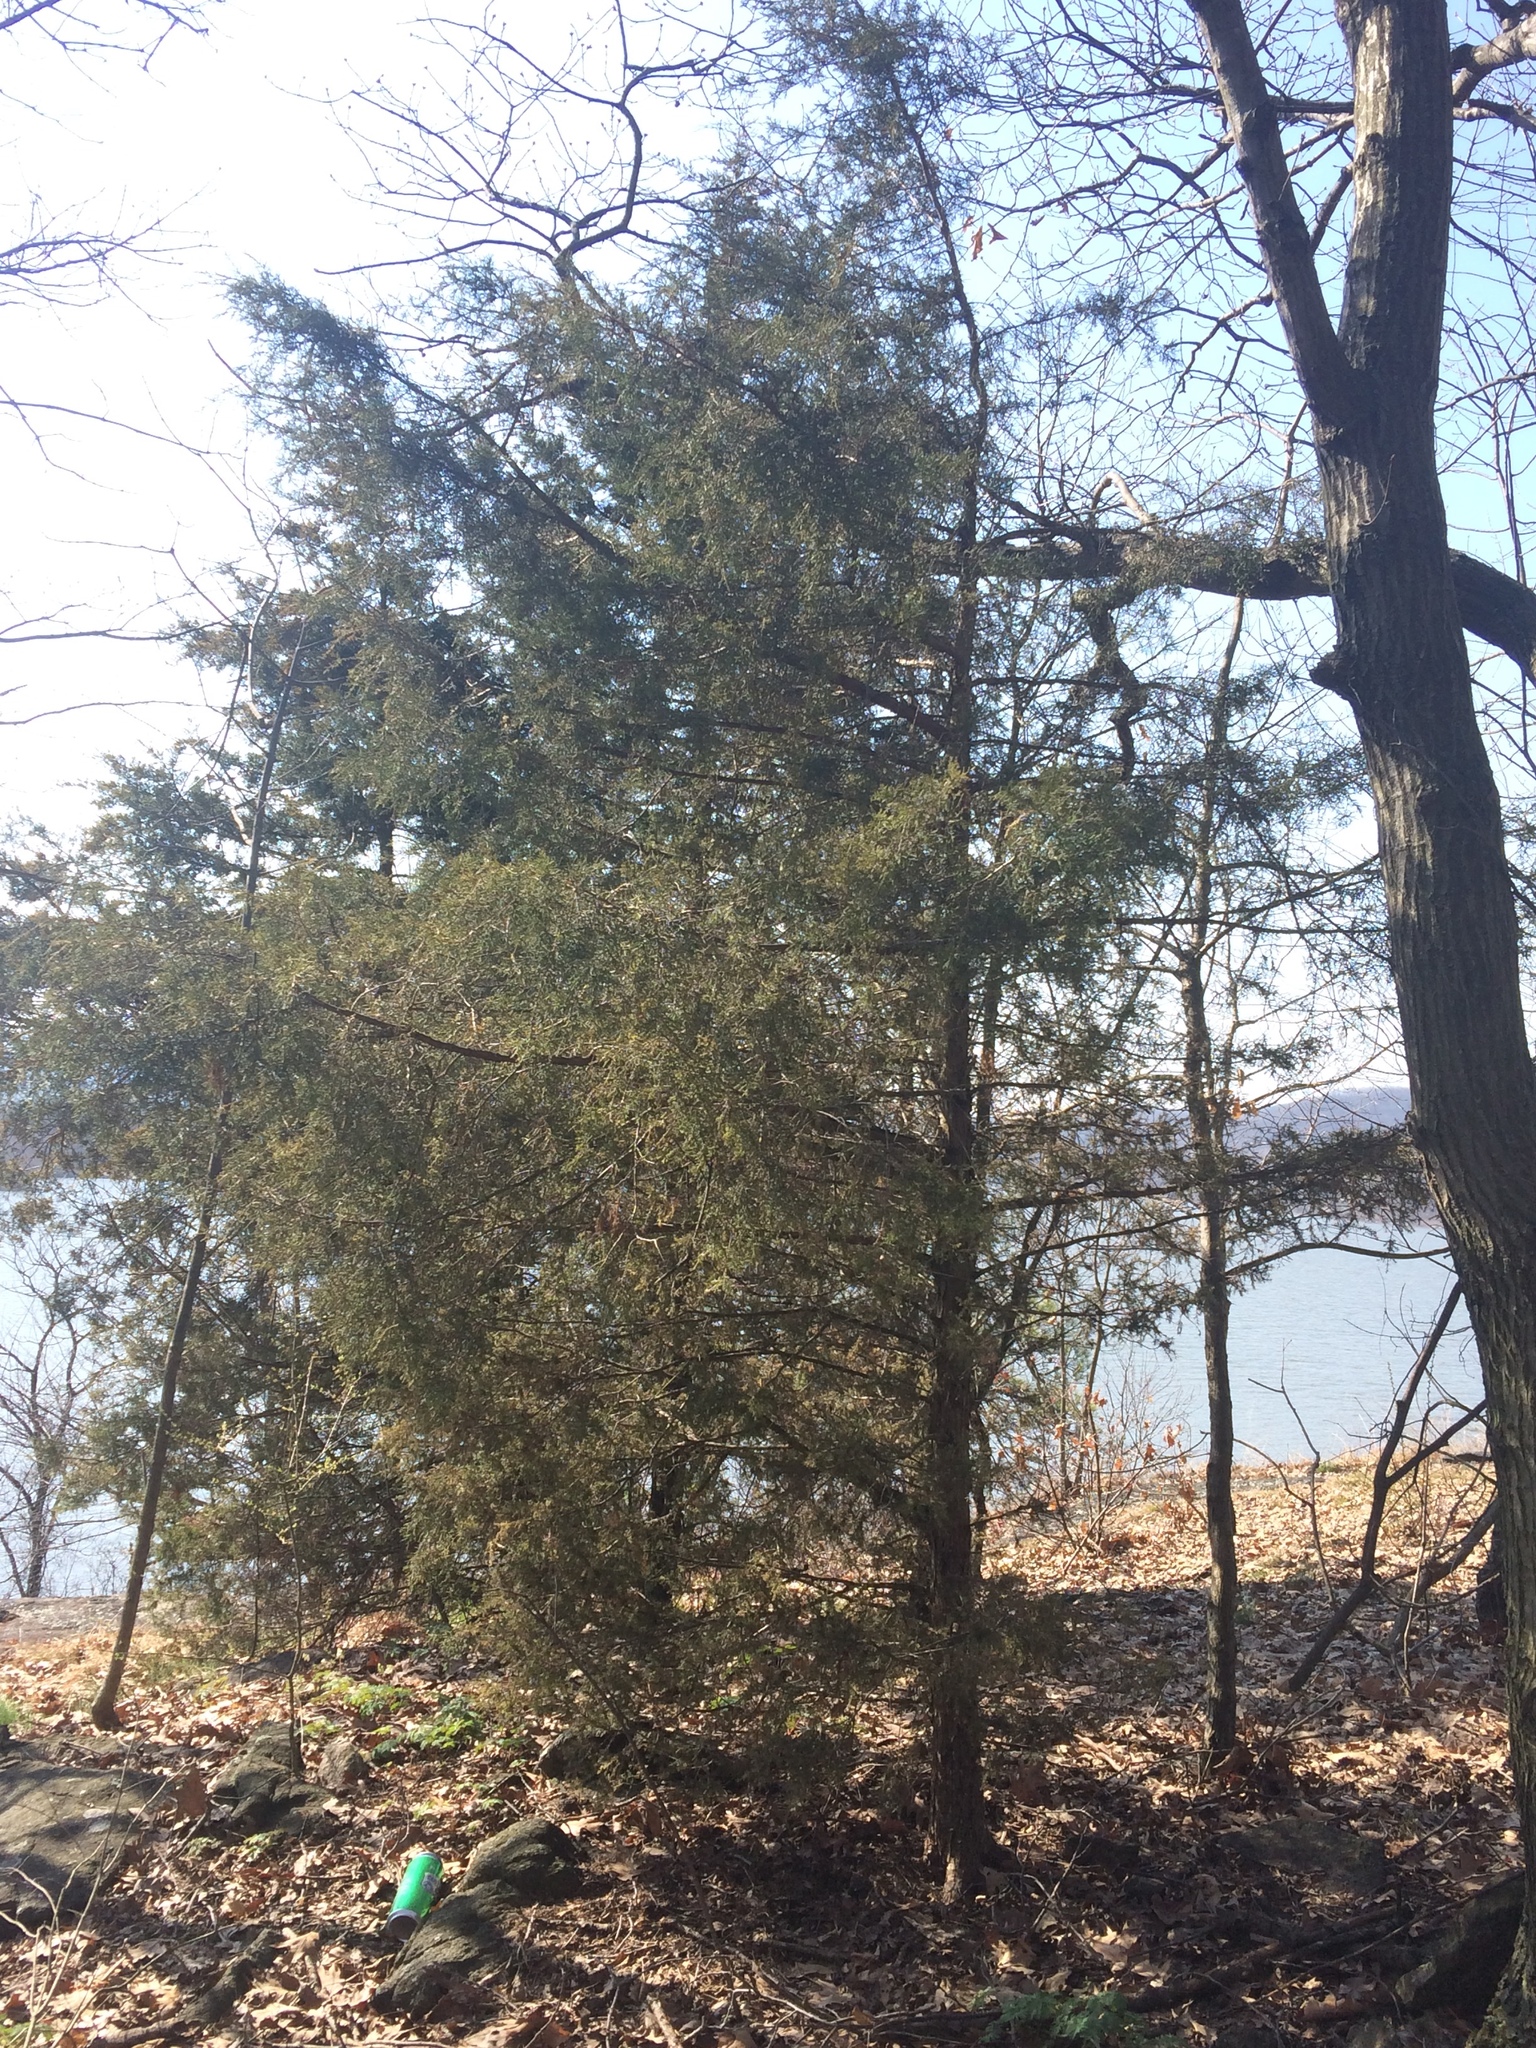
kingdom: Plantae
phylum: Tracheophyta
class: Pinopsida
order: Pinales
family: Cupressaceae
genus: Juniperus
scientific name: Juniperus virginiana
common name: Red juniper
